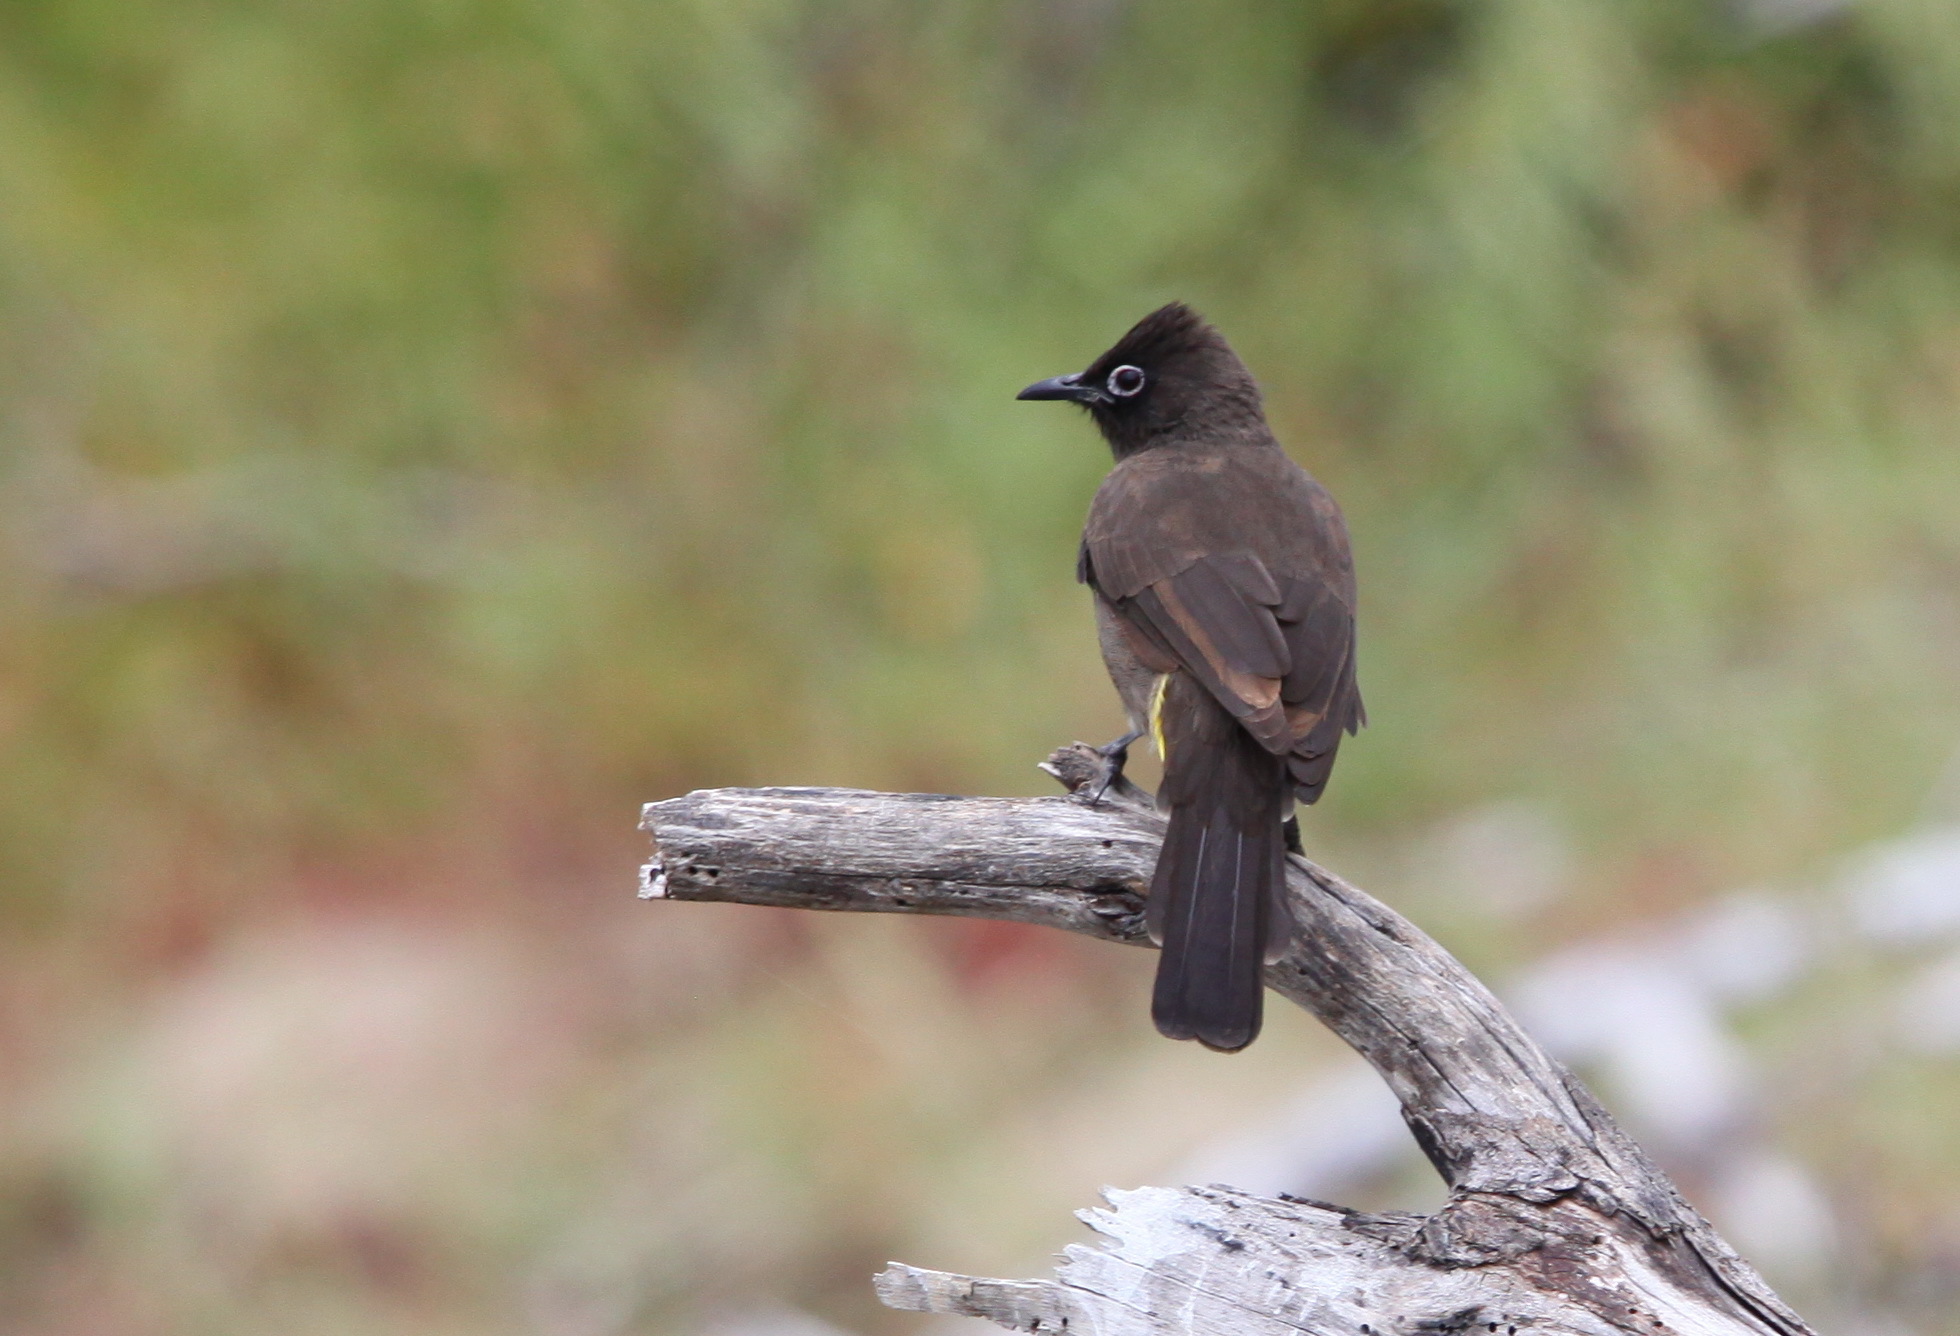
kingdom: Animalia
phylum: Chordata
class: Aves
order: Passeriformes
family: Pycnonotidae
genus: Pycnonotus
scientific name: Pycnonotus capensis
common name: Cape bulbul
